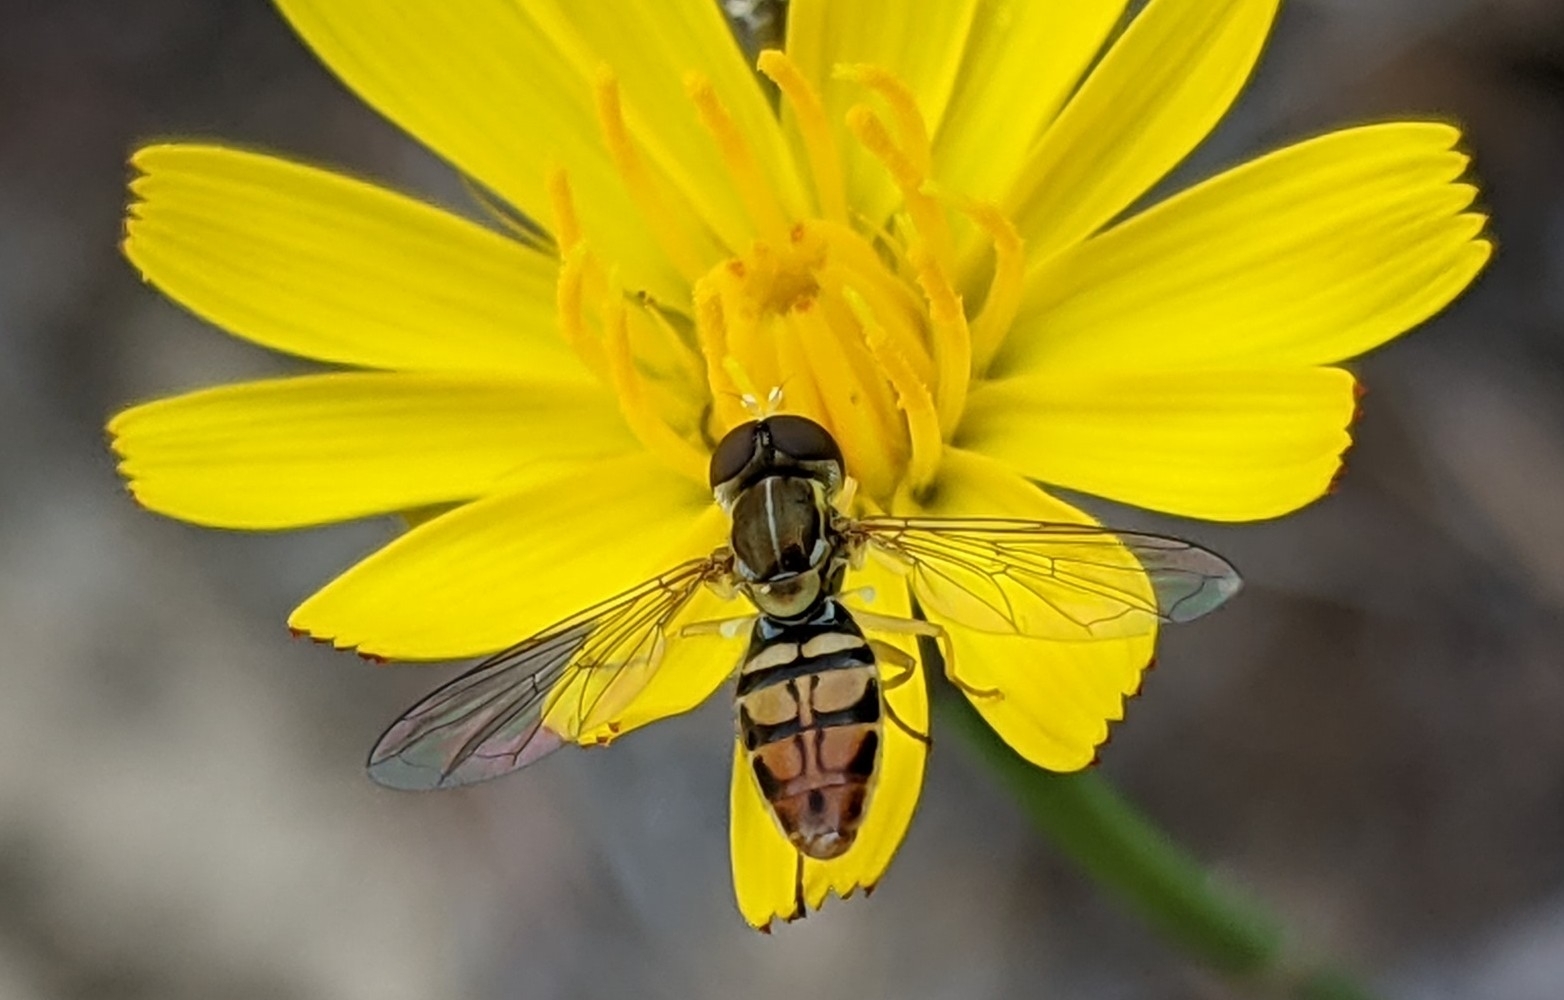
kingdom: Animalia
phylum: Arthropoda
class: Insecta
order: Diptera
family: Syrphidae
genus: Toxomerus
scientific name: Toxomerus marginatus
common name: Syrphid fly
